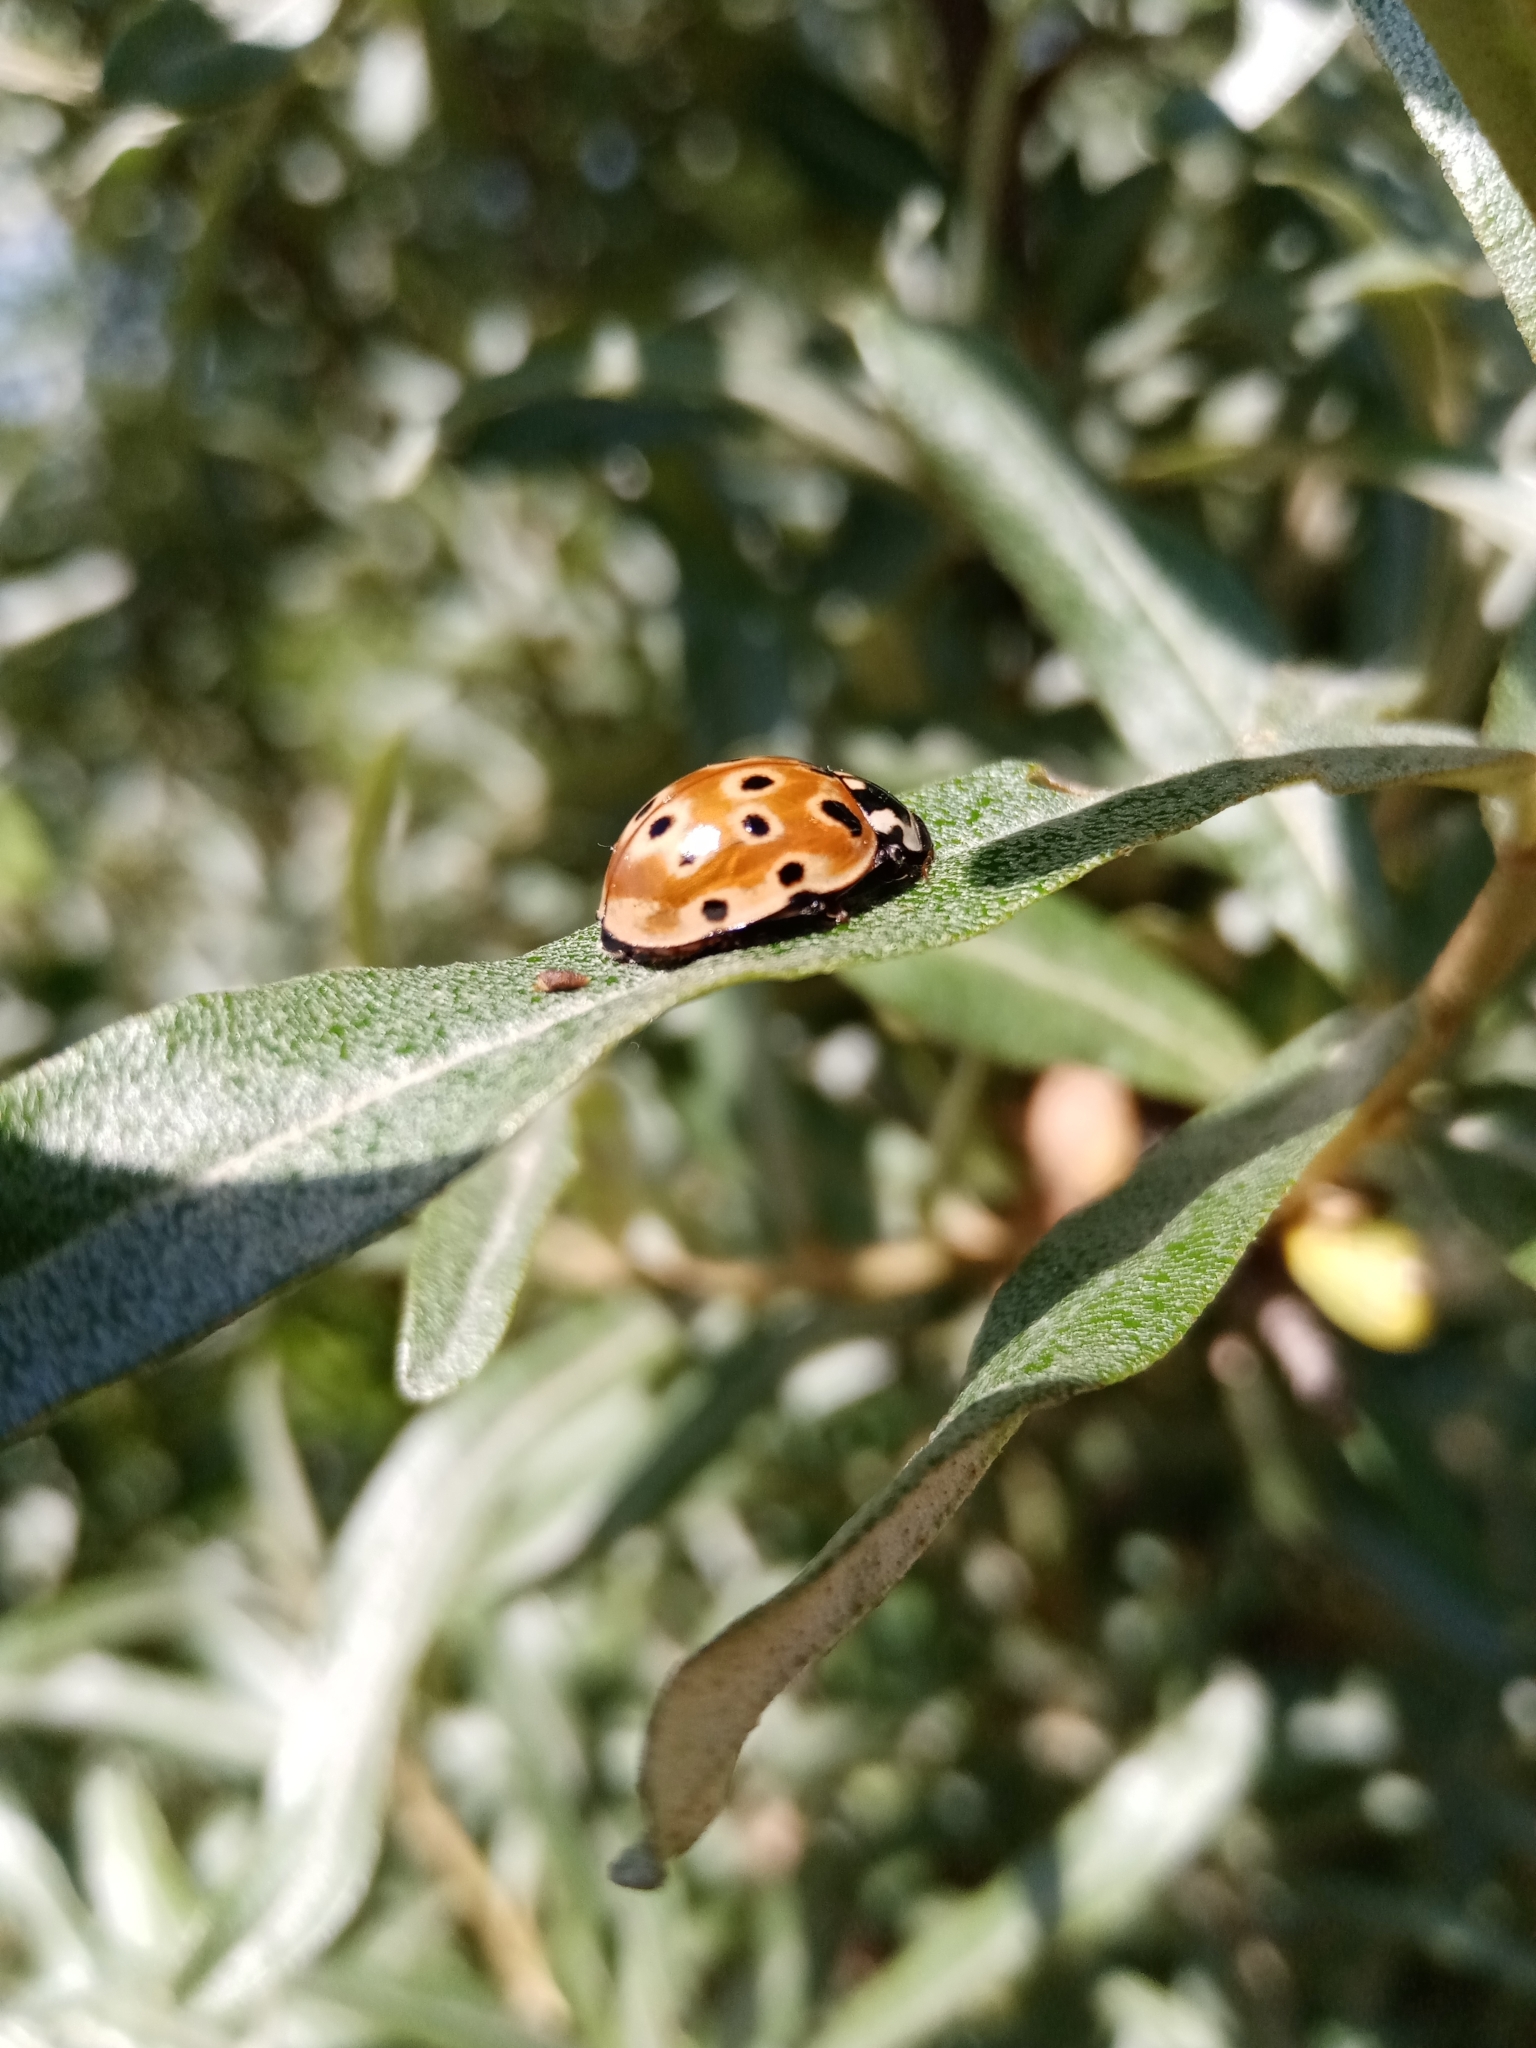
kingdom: Animalia
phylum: Arthropoda
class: Insecta
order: Coleoptera
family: Coccinellidae
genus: Anatis
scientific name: Anatis ocellata
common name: Eyed ladybird
